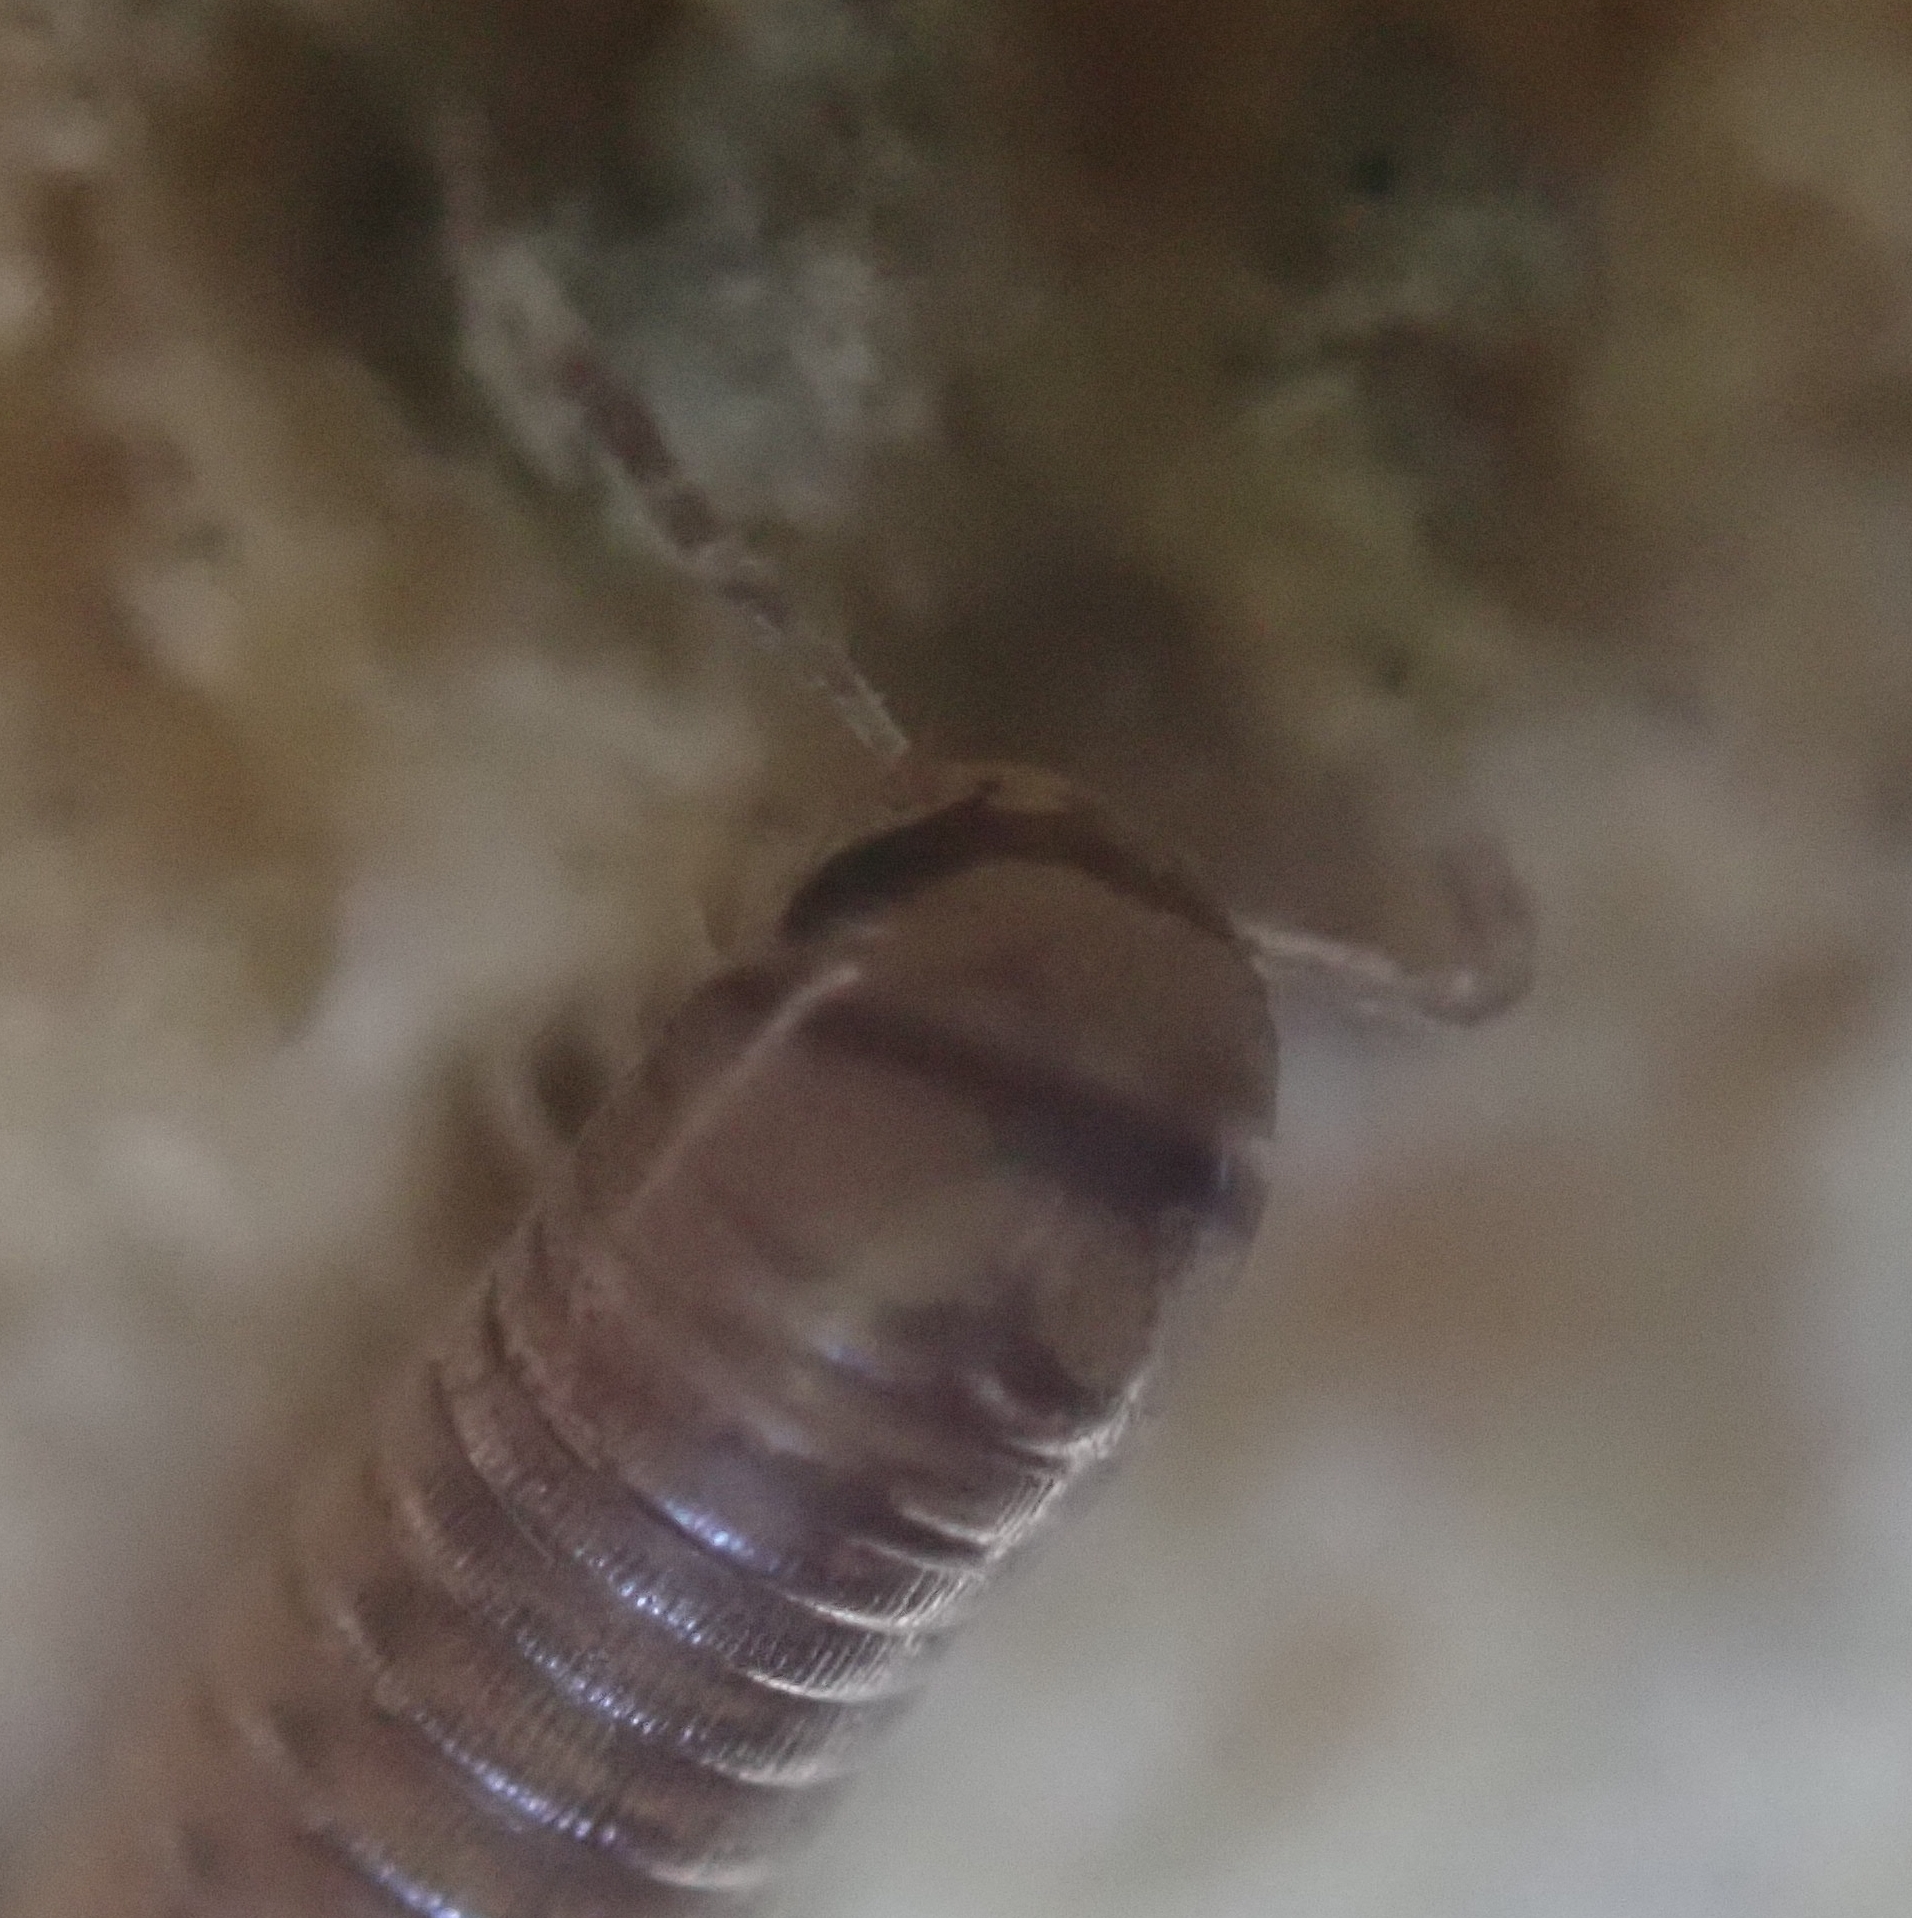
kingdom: Animalia
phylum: Arthropoda
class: Diplopoda
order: Julida
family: Julidae
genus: Cylindroiulus
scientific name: Cylindroiulus punctatus
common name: Blunt-tailed millipede
